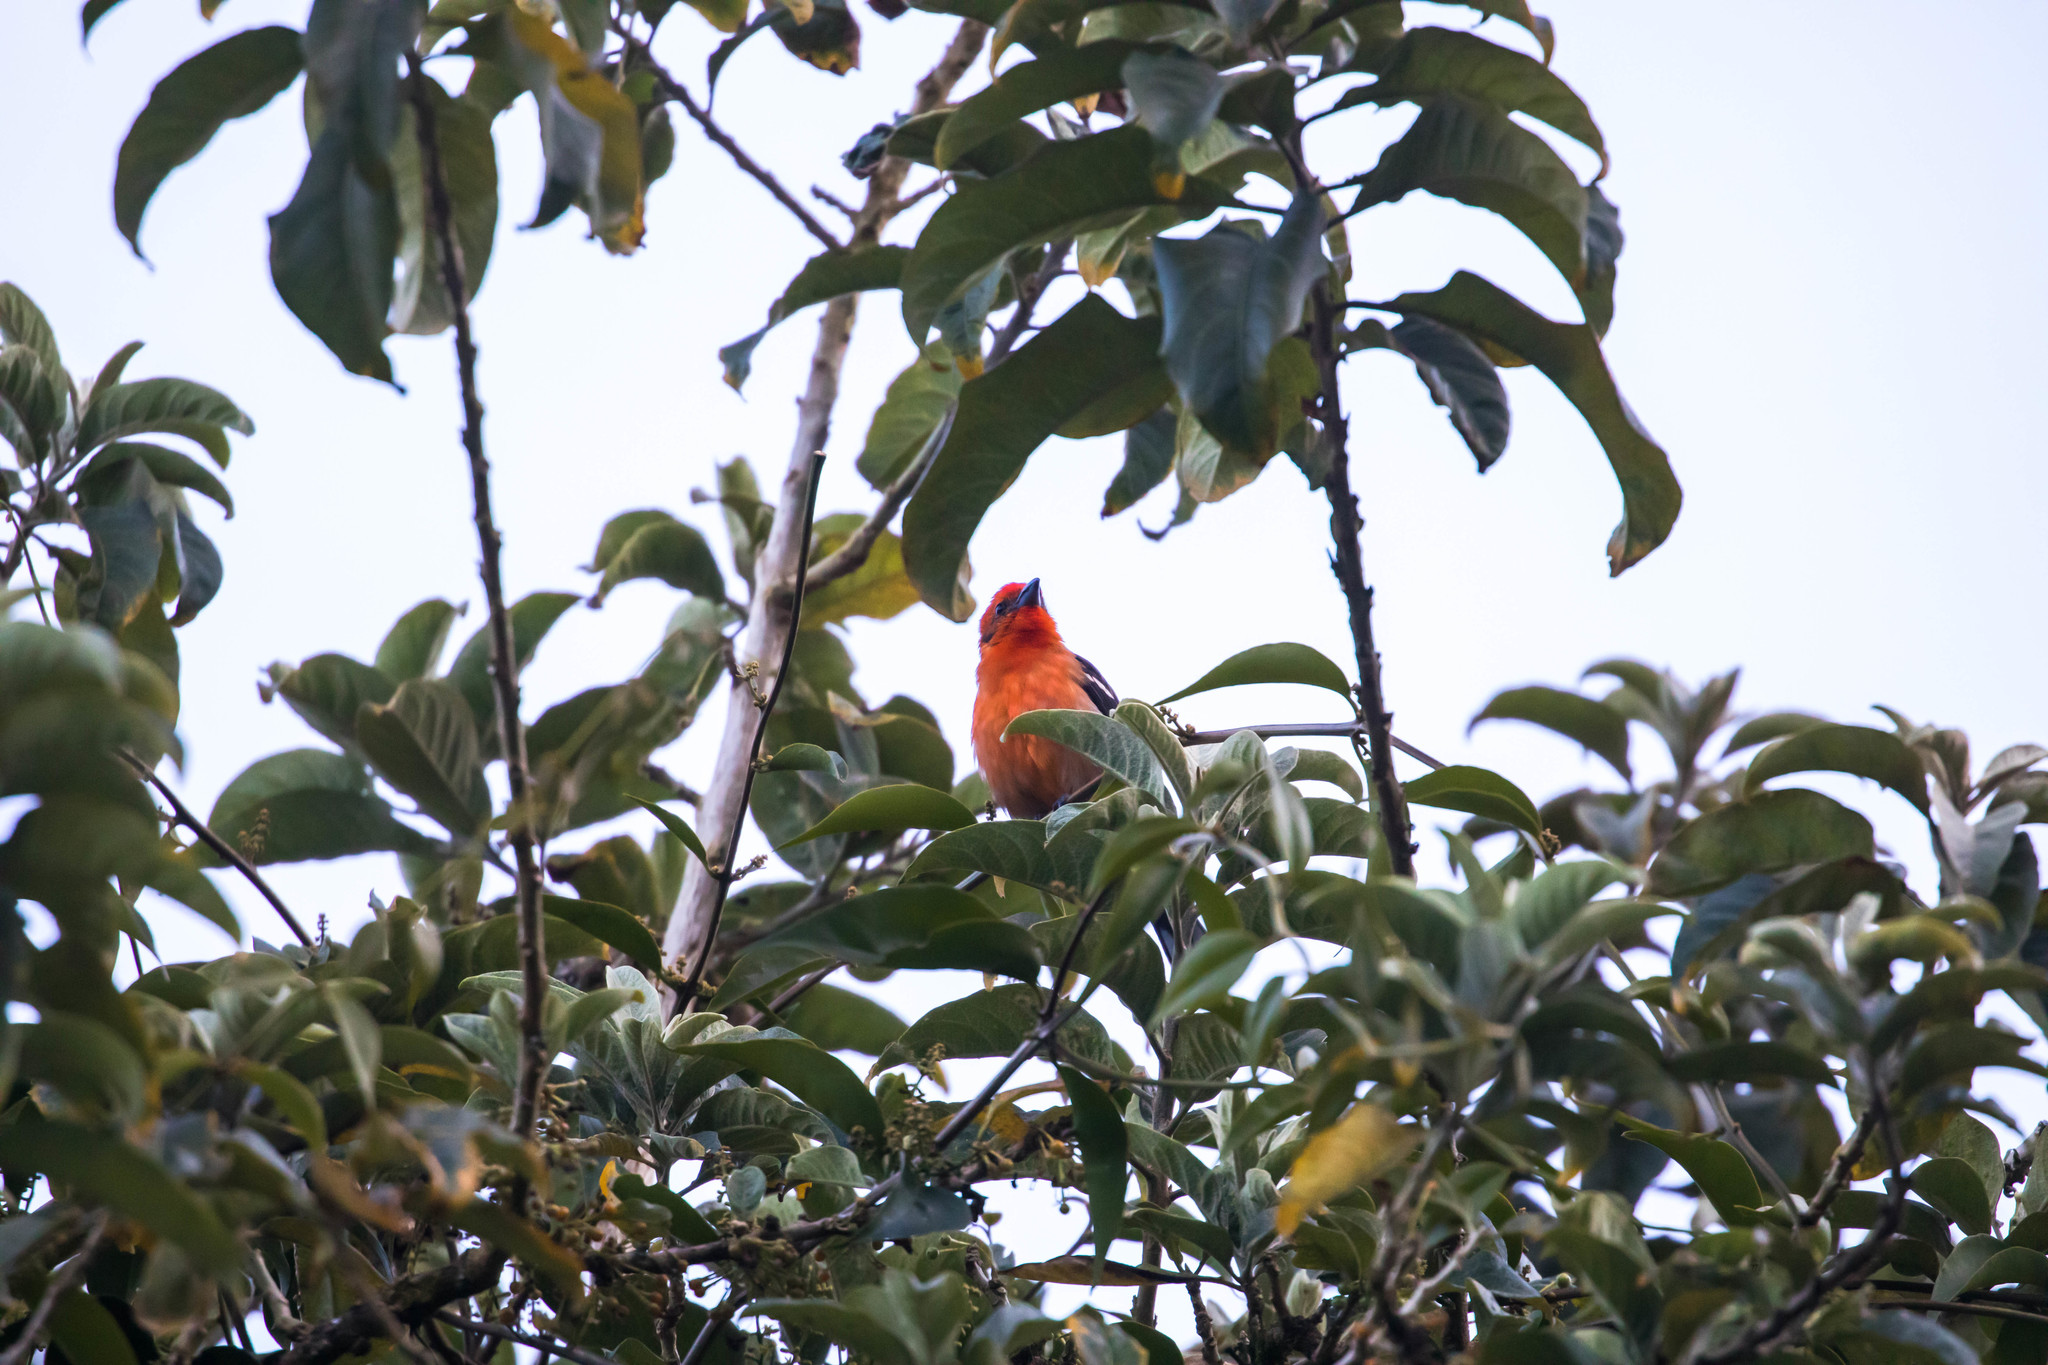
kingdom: Animalia
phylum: Chordata
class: Aves
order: Passeriformes
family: Cardinalidae
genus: Piranga
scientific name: Piranga bidentata
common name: Flame-colored tanager
